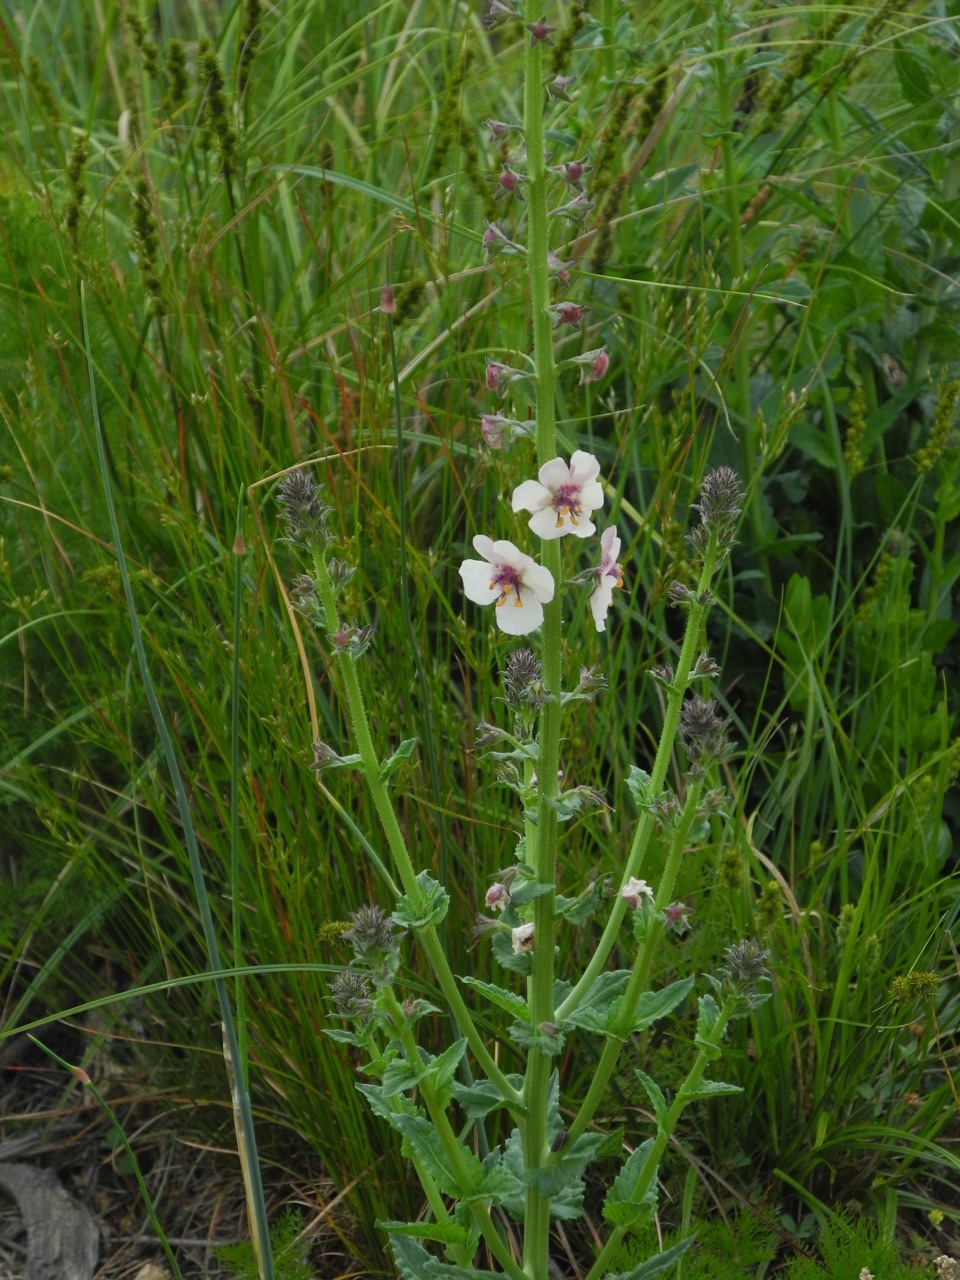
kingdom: Plantae
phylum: Tracheophyta
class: Magnoliopsida
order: Lamiales
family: Scrophulariaceae
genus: Verbascum
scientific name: Verbascum blattaria
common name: Moth mullein
